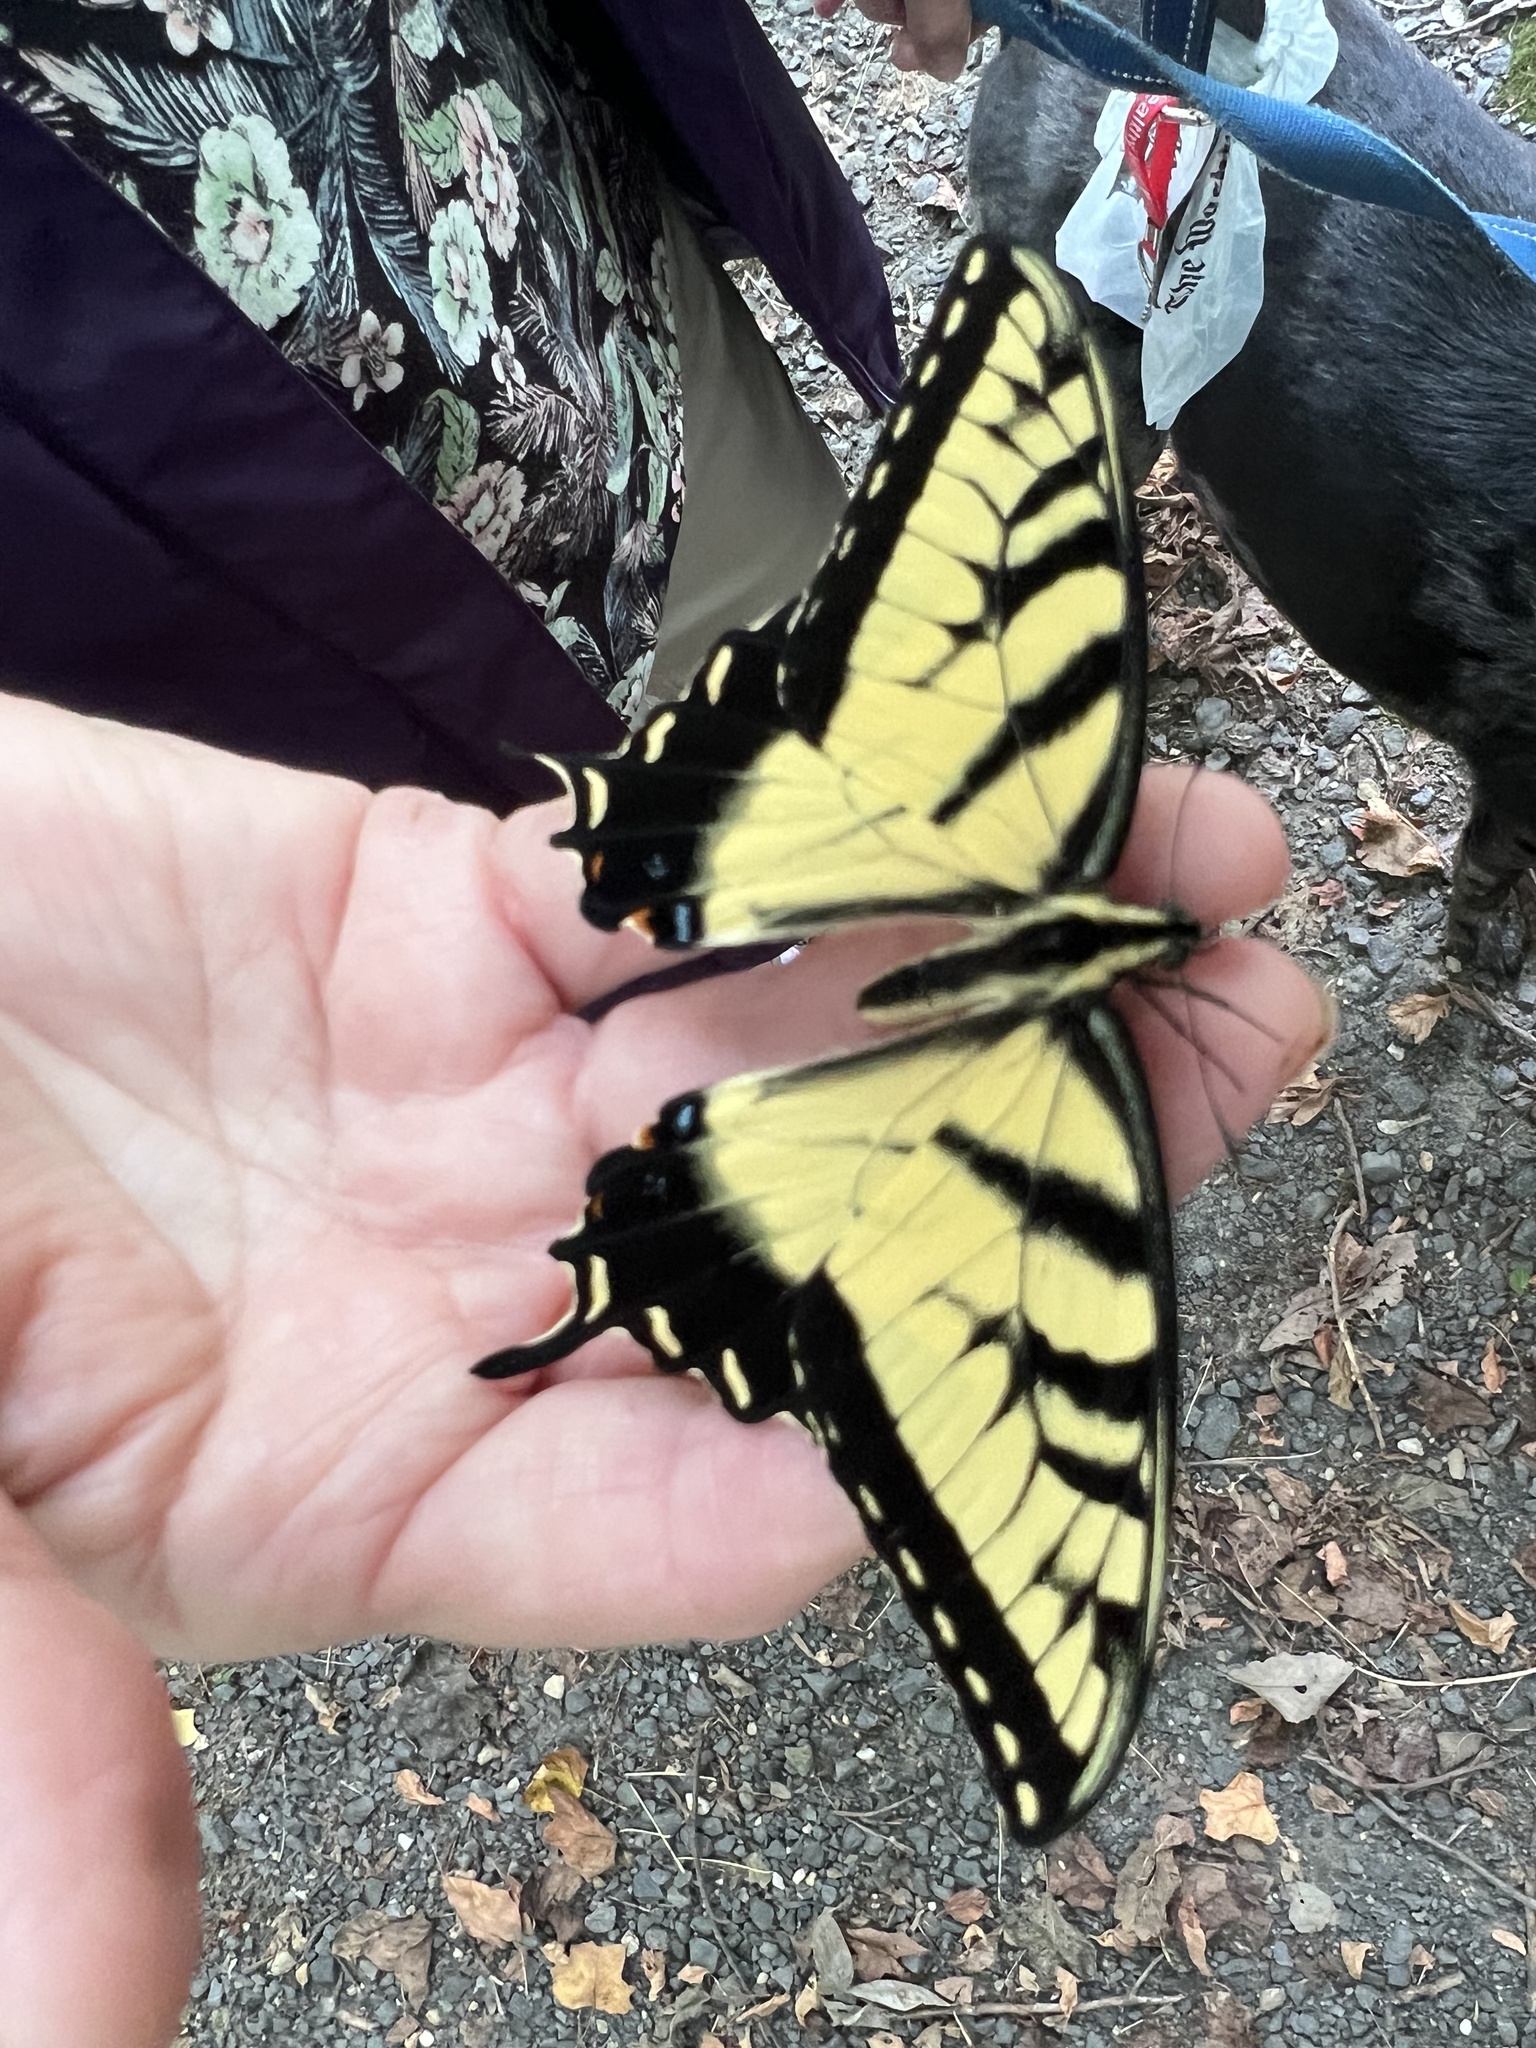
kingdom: Animalia
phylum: Arthropoda
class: Insecta
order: Lepidoptera
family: Papilionidae
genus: Papilio
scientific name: Papilio glaucus
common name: Tiger swallowtail
